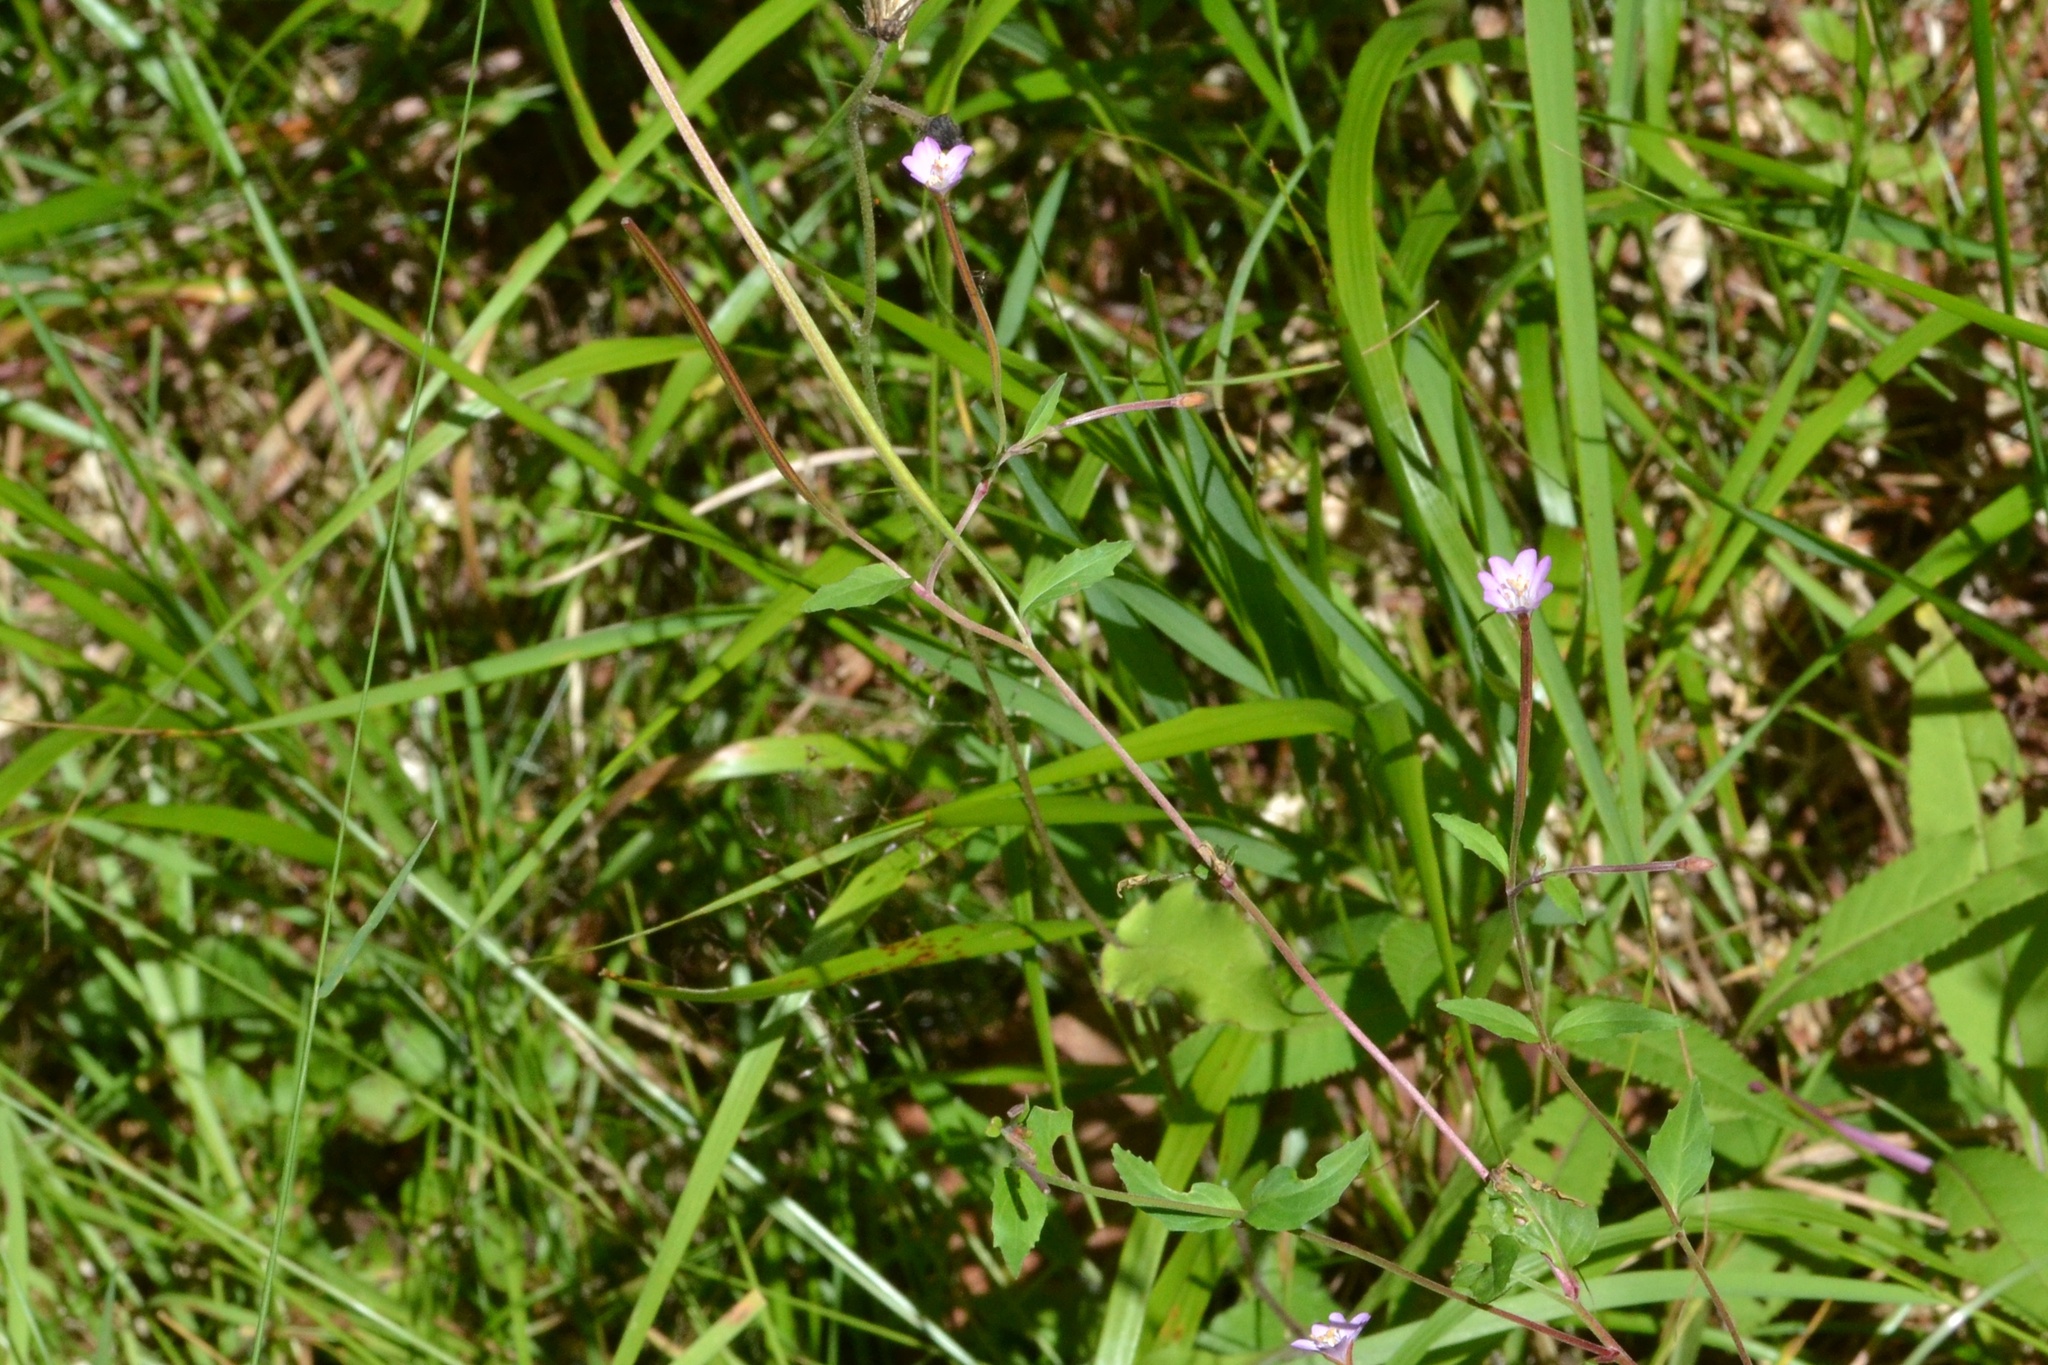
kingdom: Plantae
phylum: Tracheophyta
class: Magnoliopsida
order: Myrtales
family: Onagraceae
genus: Epilobium
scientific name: Epilobium montanum
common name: Broad-leaved willowherb
